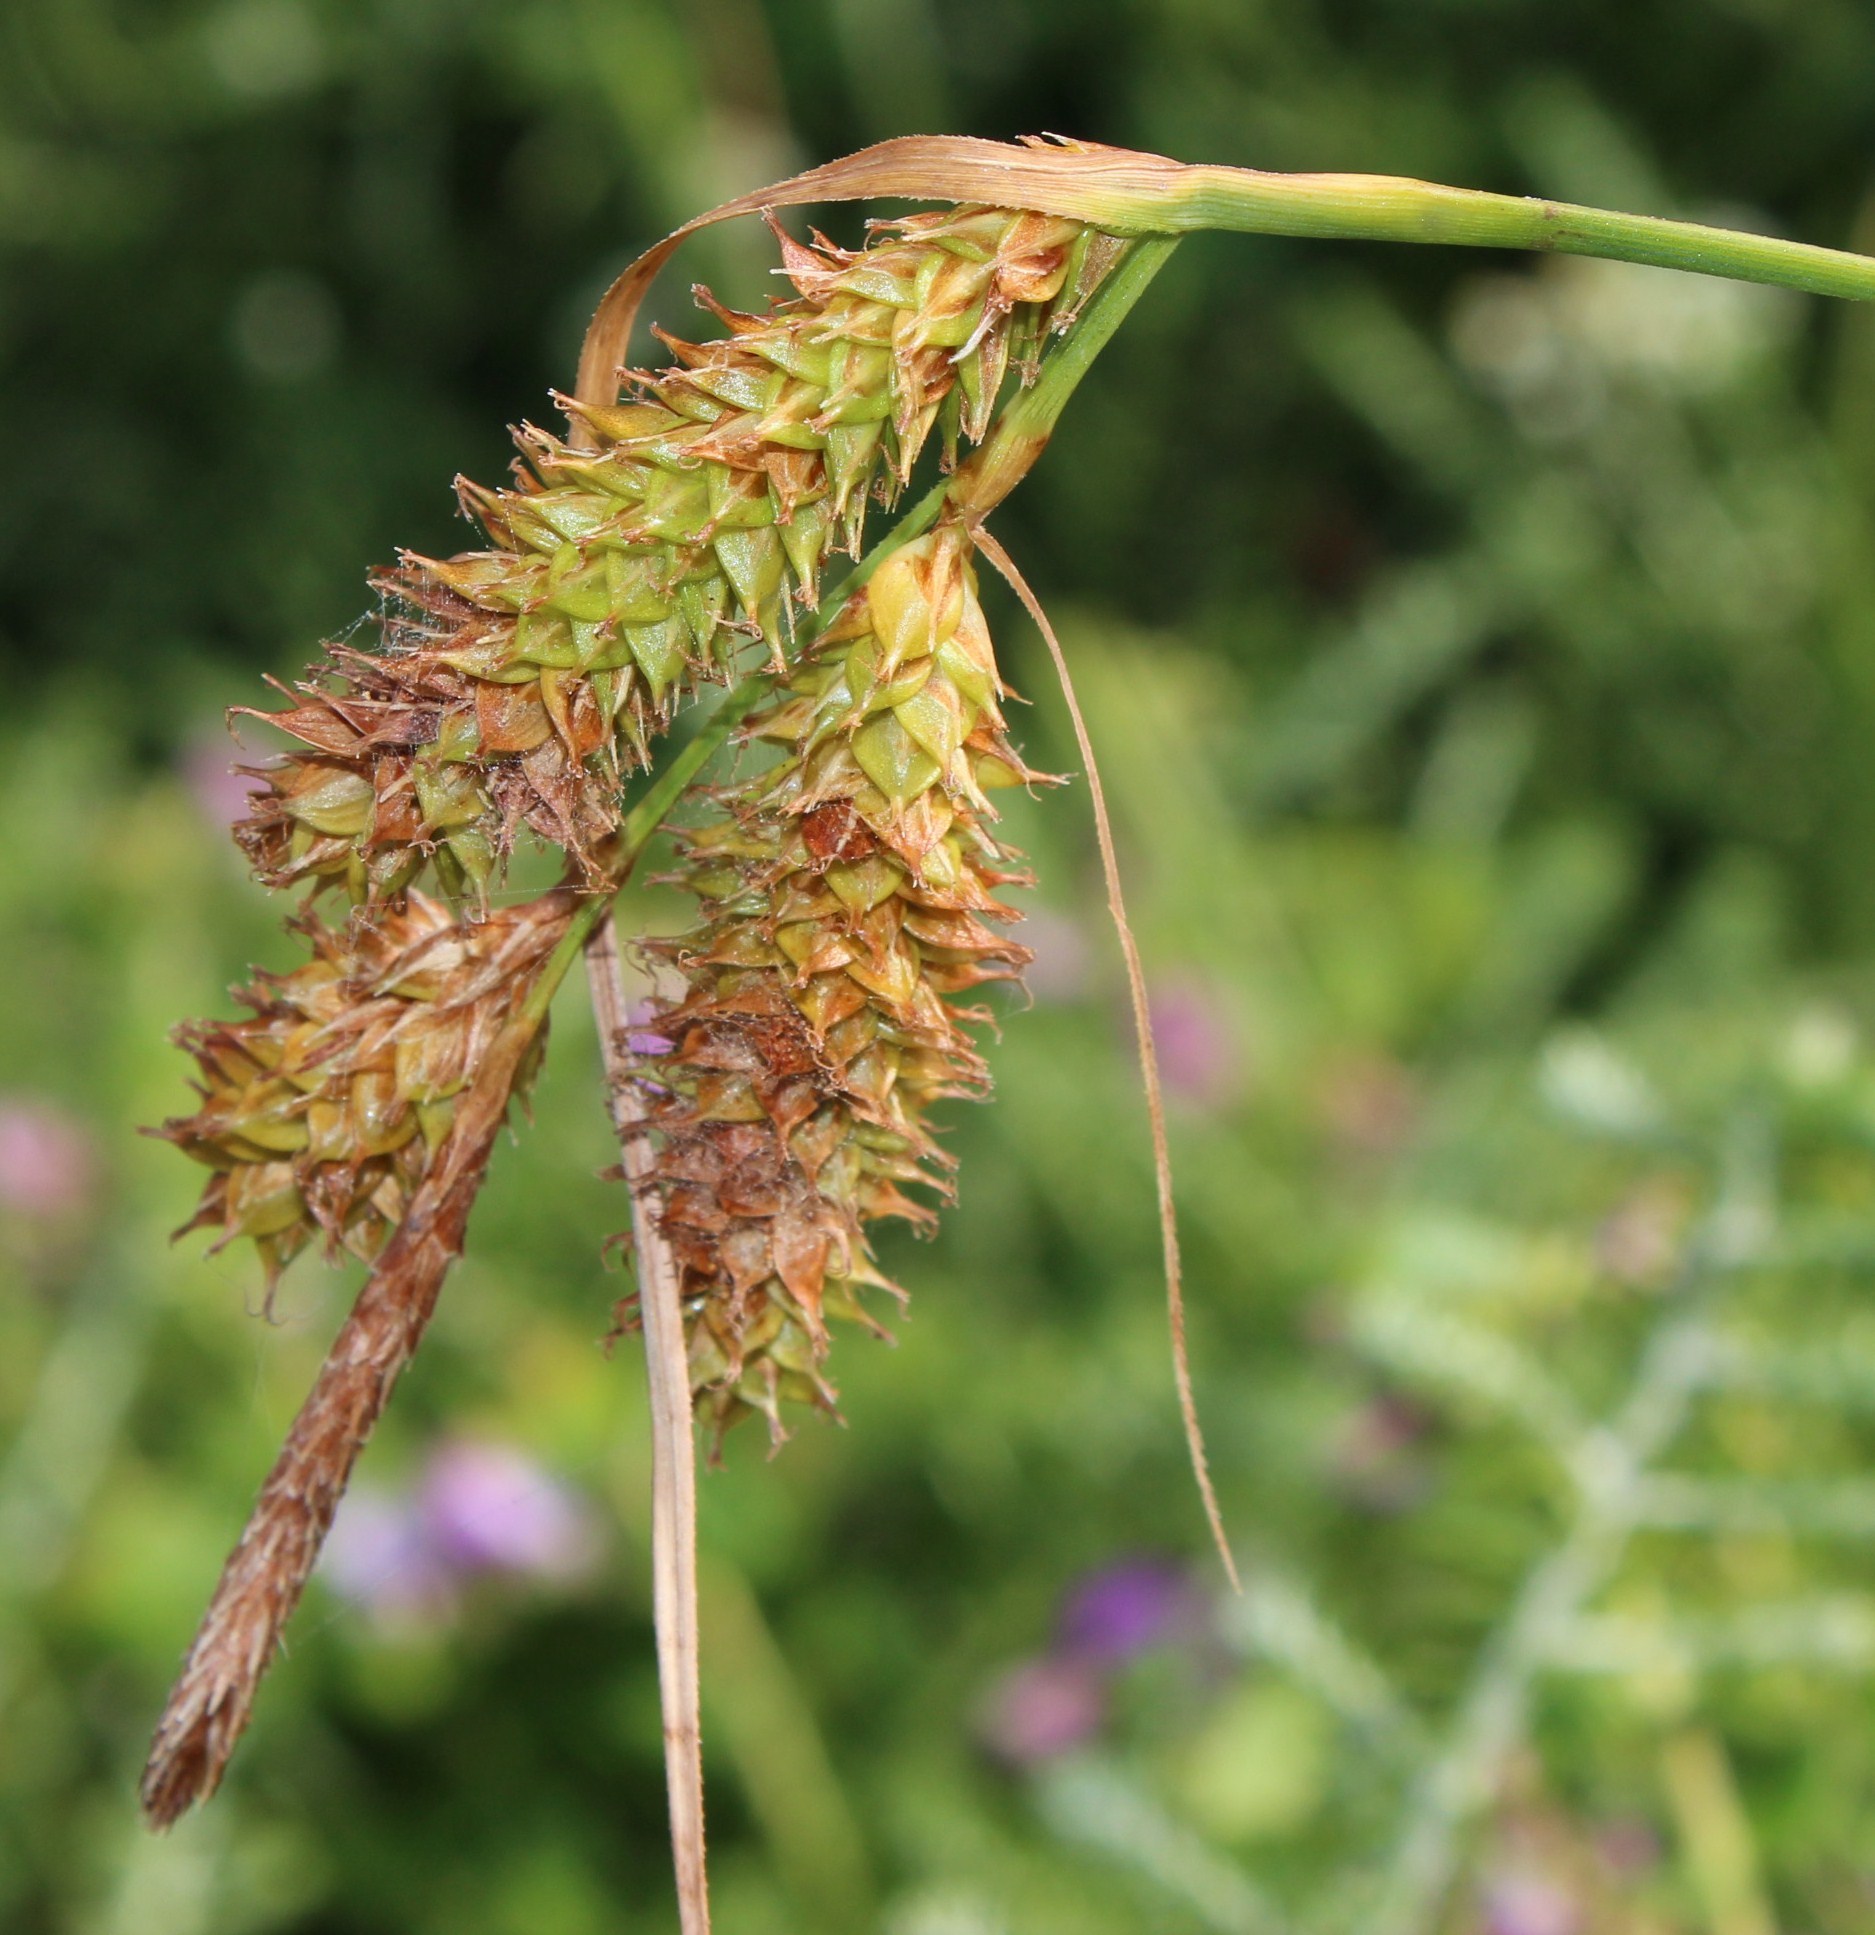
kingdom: Plantae
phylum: Tracheophyta
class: Liliopsida
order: Poales
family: Cyperaceae
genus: Carex
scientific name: Carex aethiopica
